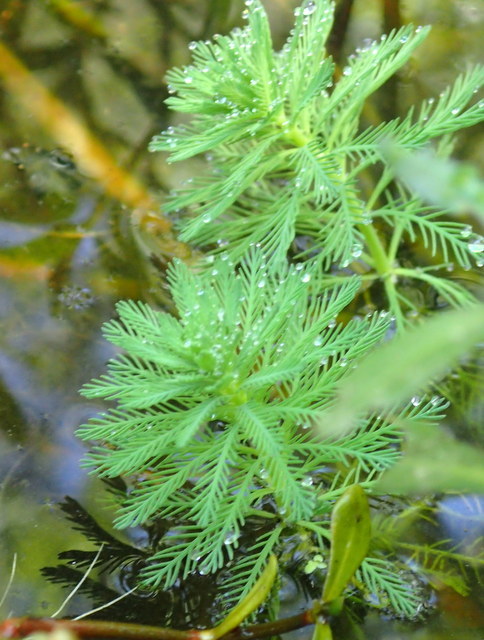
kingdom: Plantae
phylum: Tracheophyta
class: Magnoliopsida
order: Saxifragales
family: Haloragaceae
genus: Myriophyllum
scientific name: Myriophyllum aquaticum
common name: Parrot's feather
